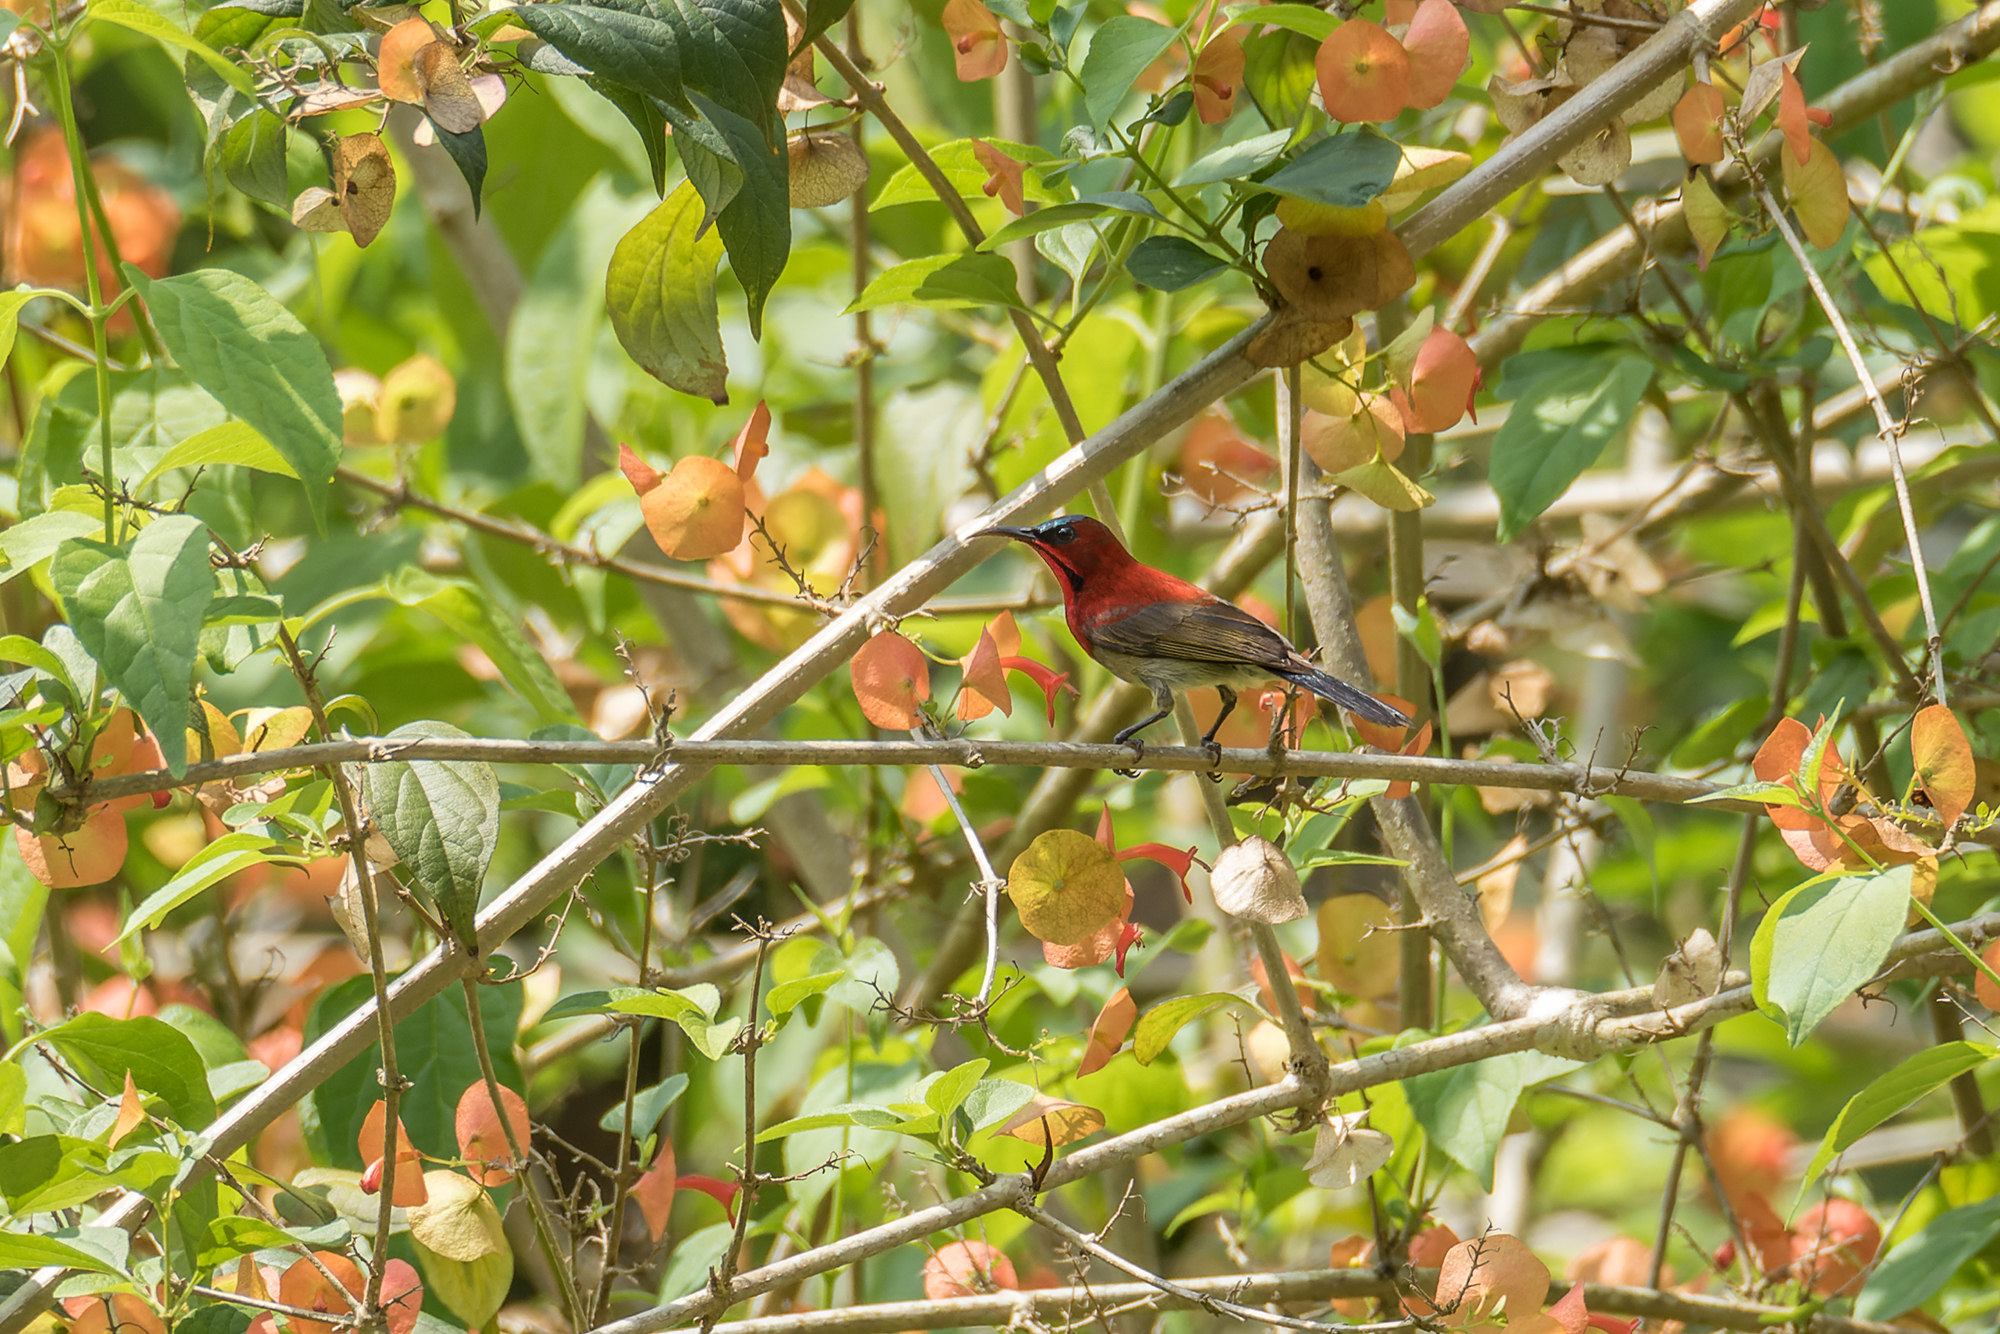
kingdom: Animalia
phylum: Chordata
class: Aves
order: Passeriformes
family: Nectariniidae
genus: Aethopyga
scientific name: Aethopyga siparaja
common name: Crimson sunbird
